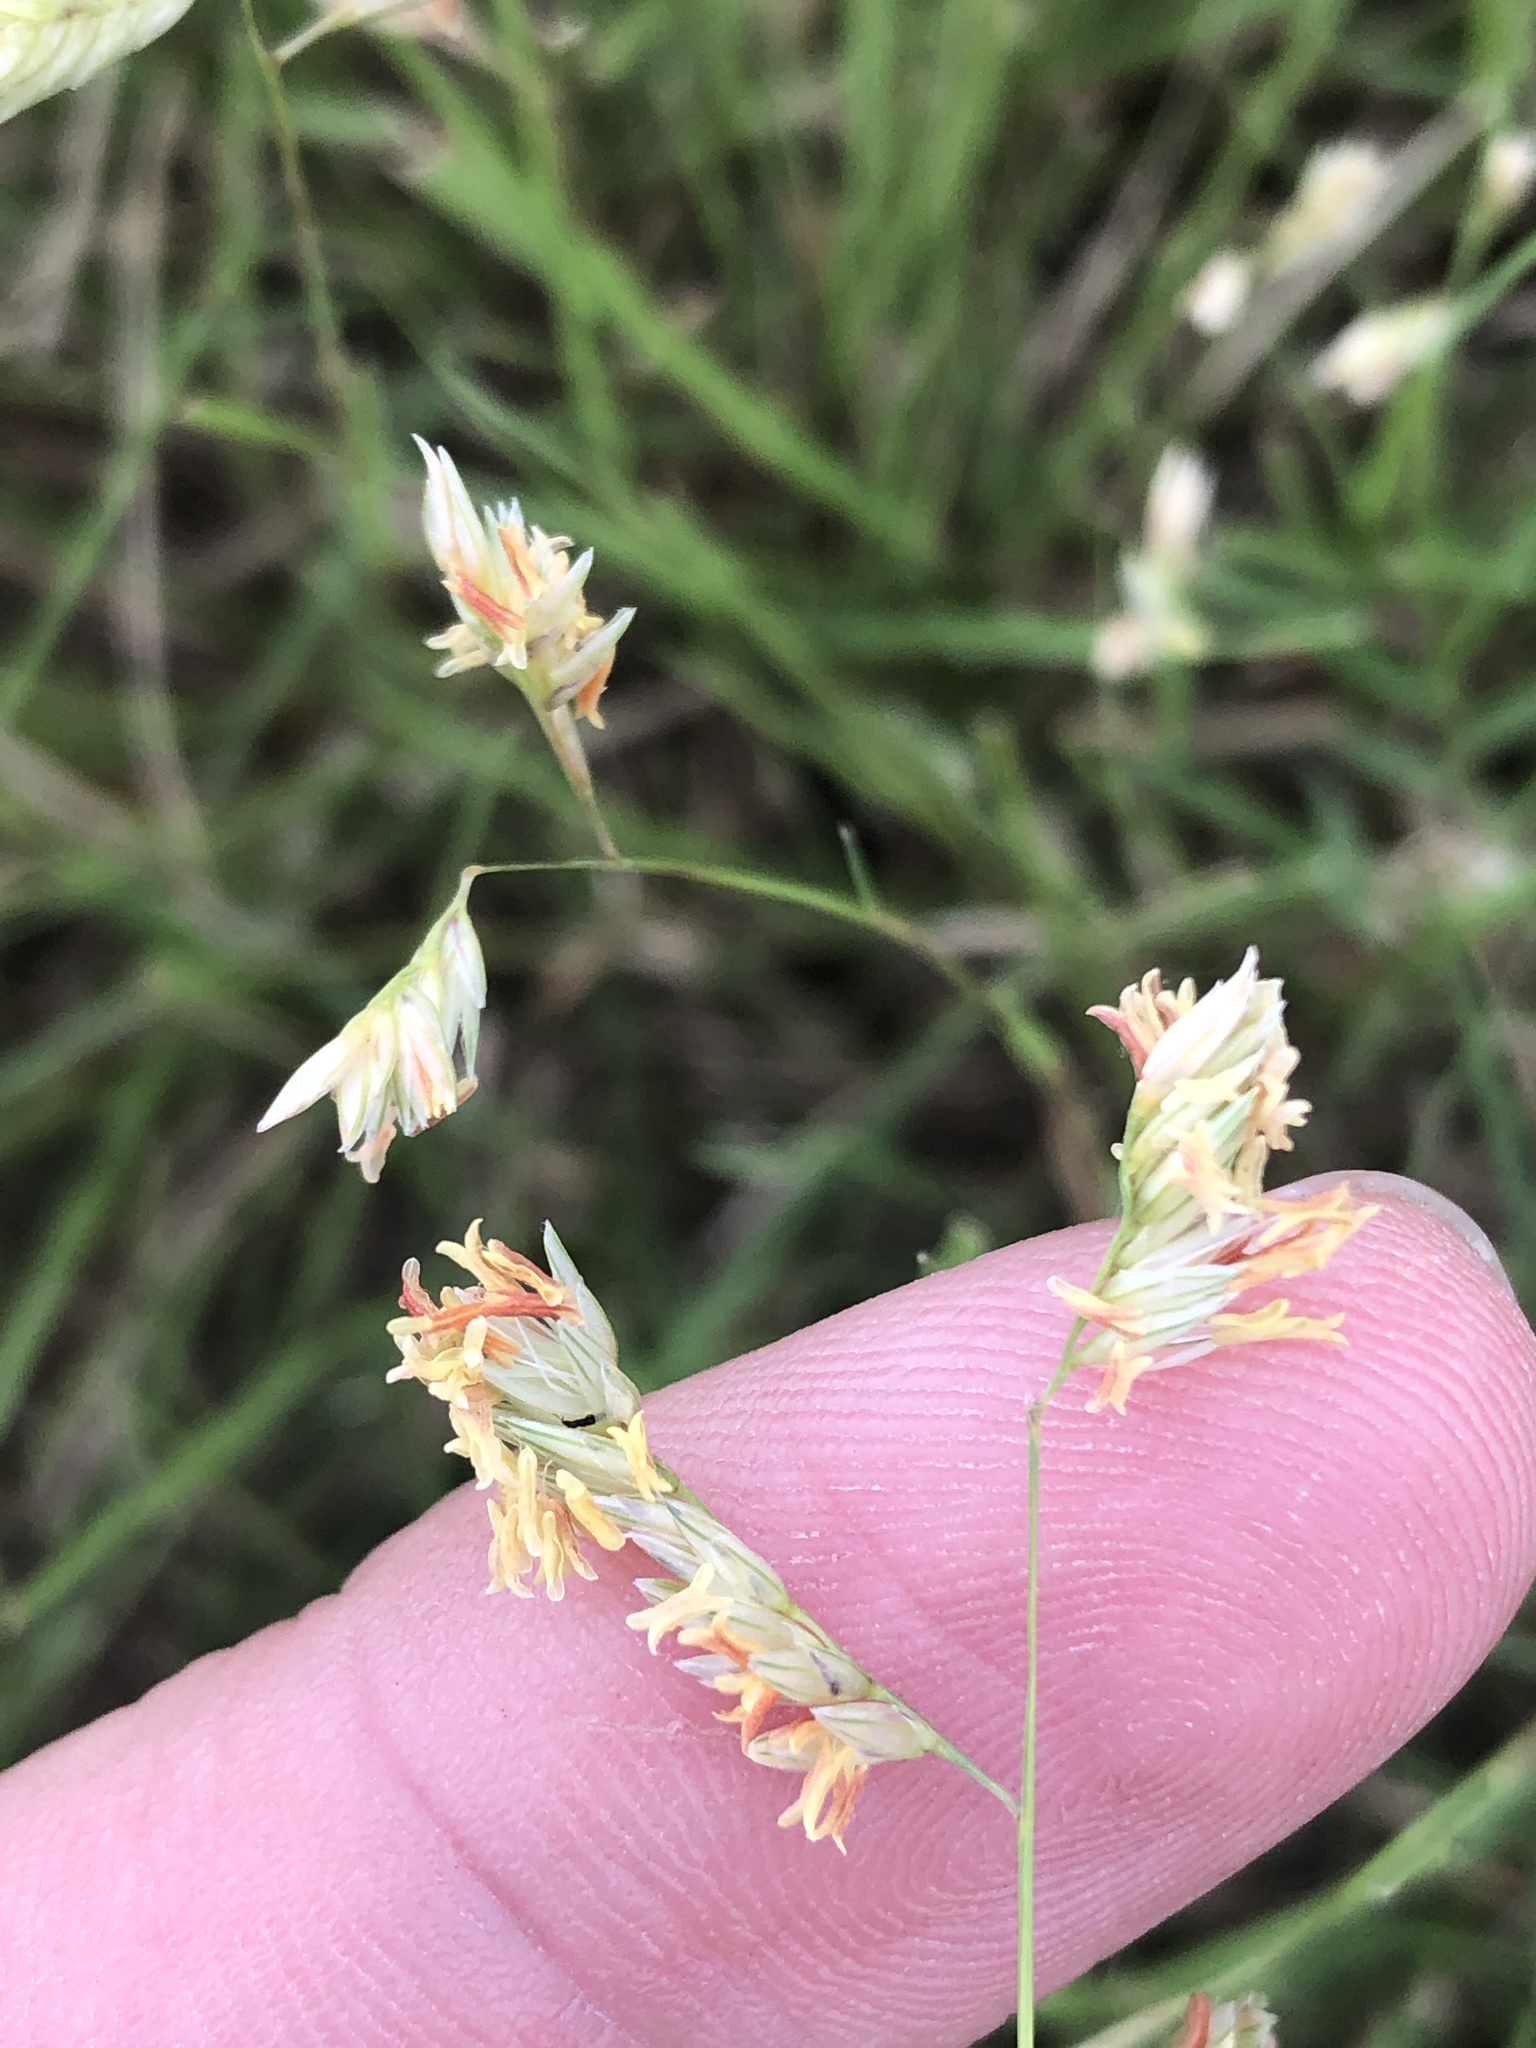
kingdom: Plantae
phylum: Tracheophyta
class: Liliopsida
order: Poales
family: Poaceae
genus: Bouteloua
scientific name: Bouteloua dactyloides
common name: Buffalo grass
